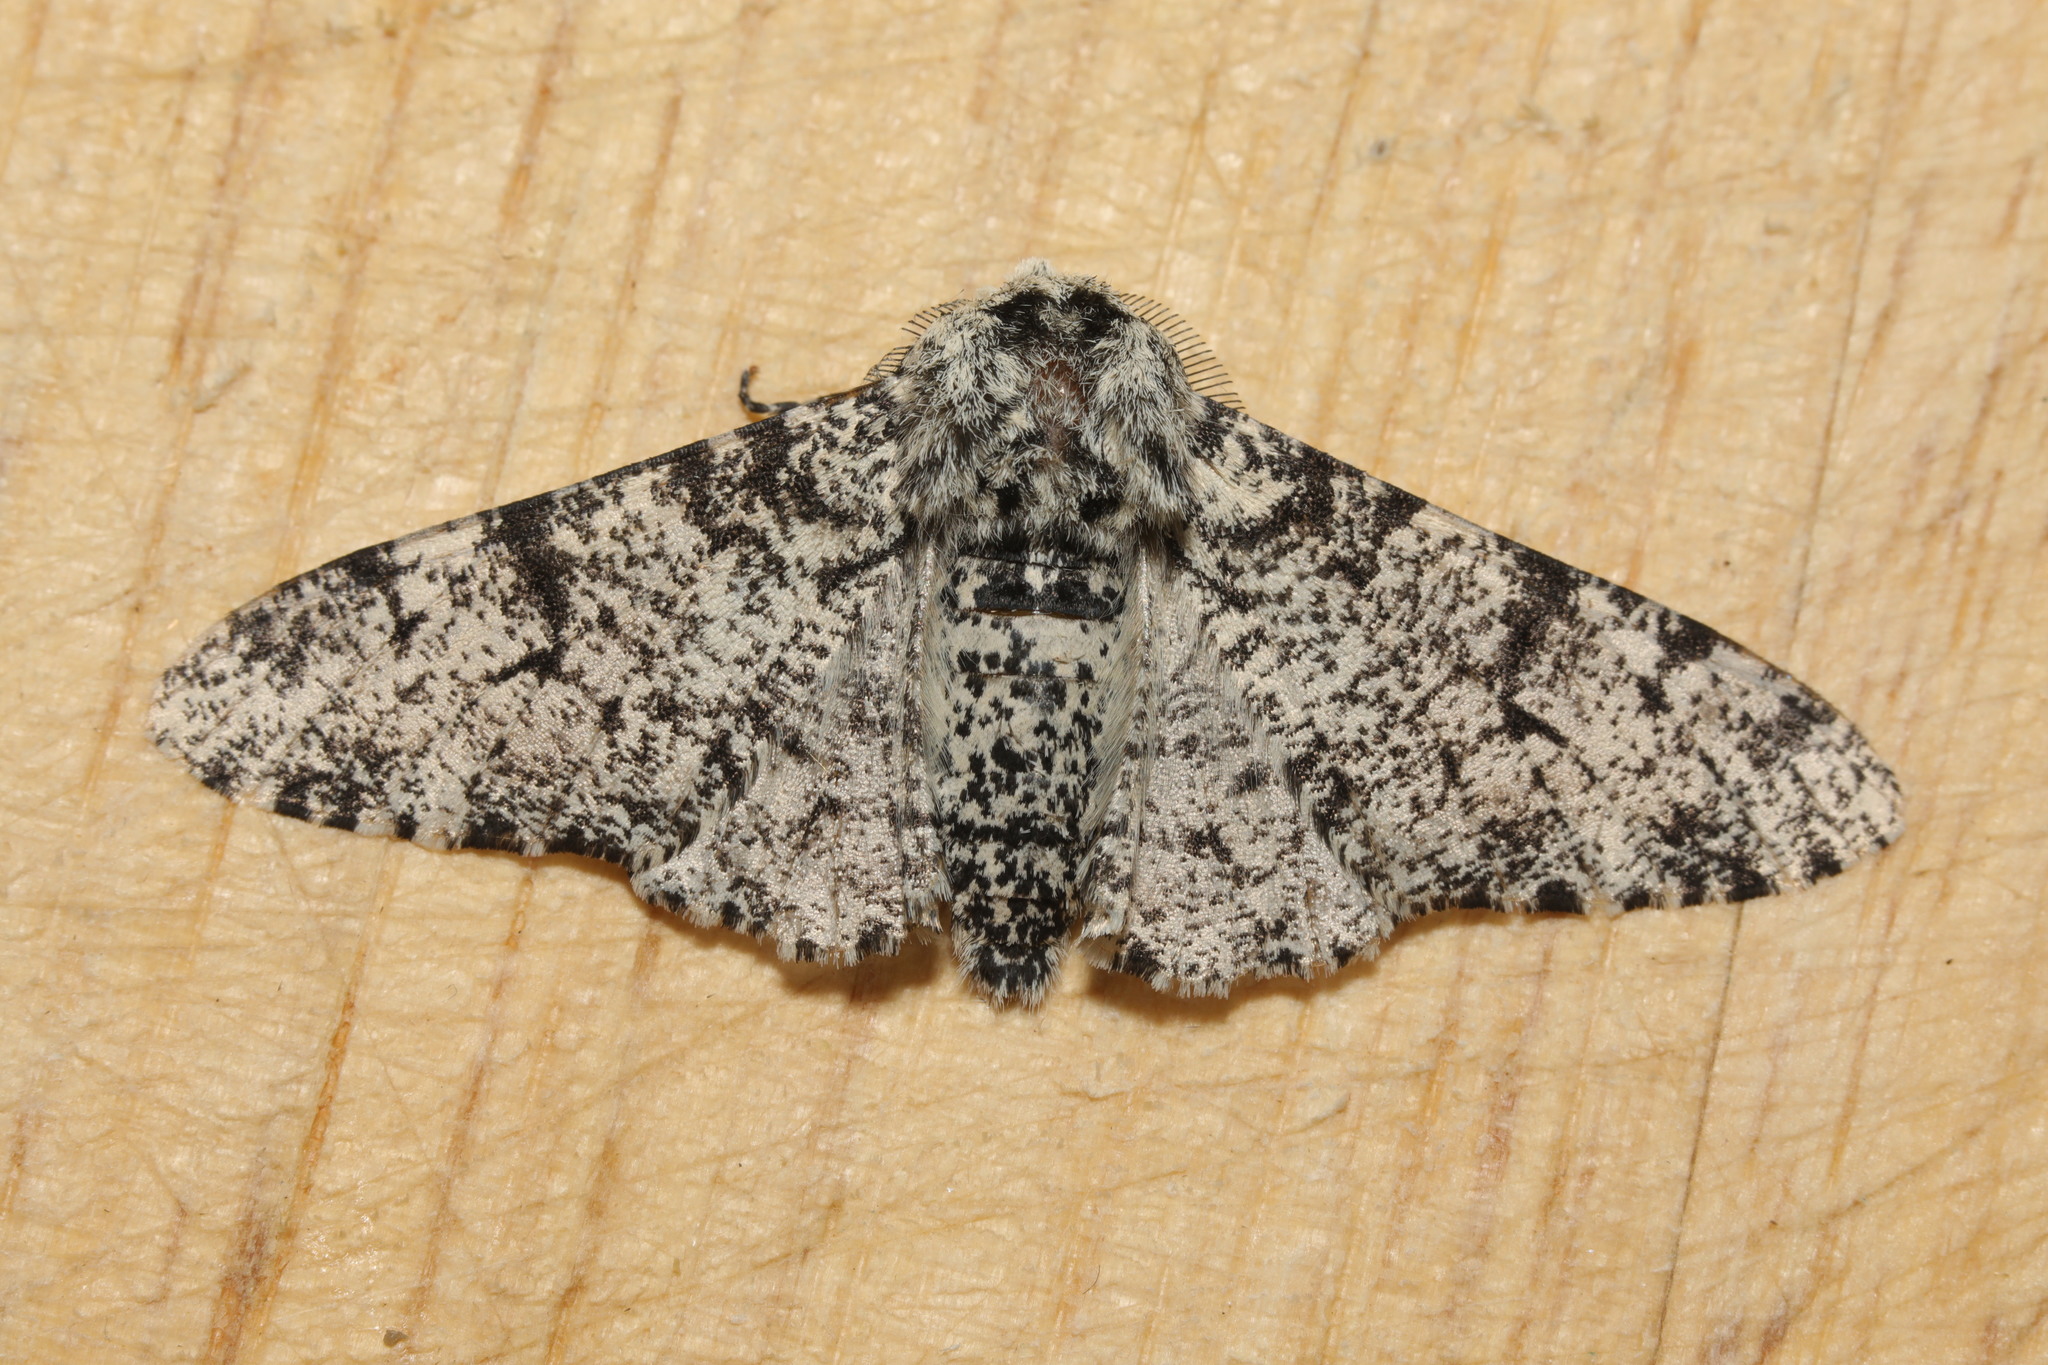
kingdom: Animalia
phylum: Arthropoda
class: Insecta
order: Lepidoptera
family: Geometridae
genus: Biston
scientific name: Biston betularia
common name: Peppered moth
